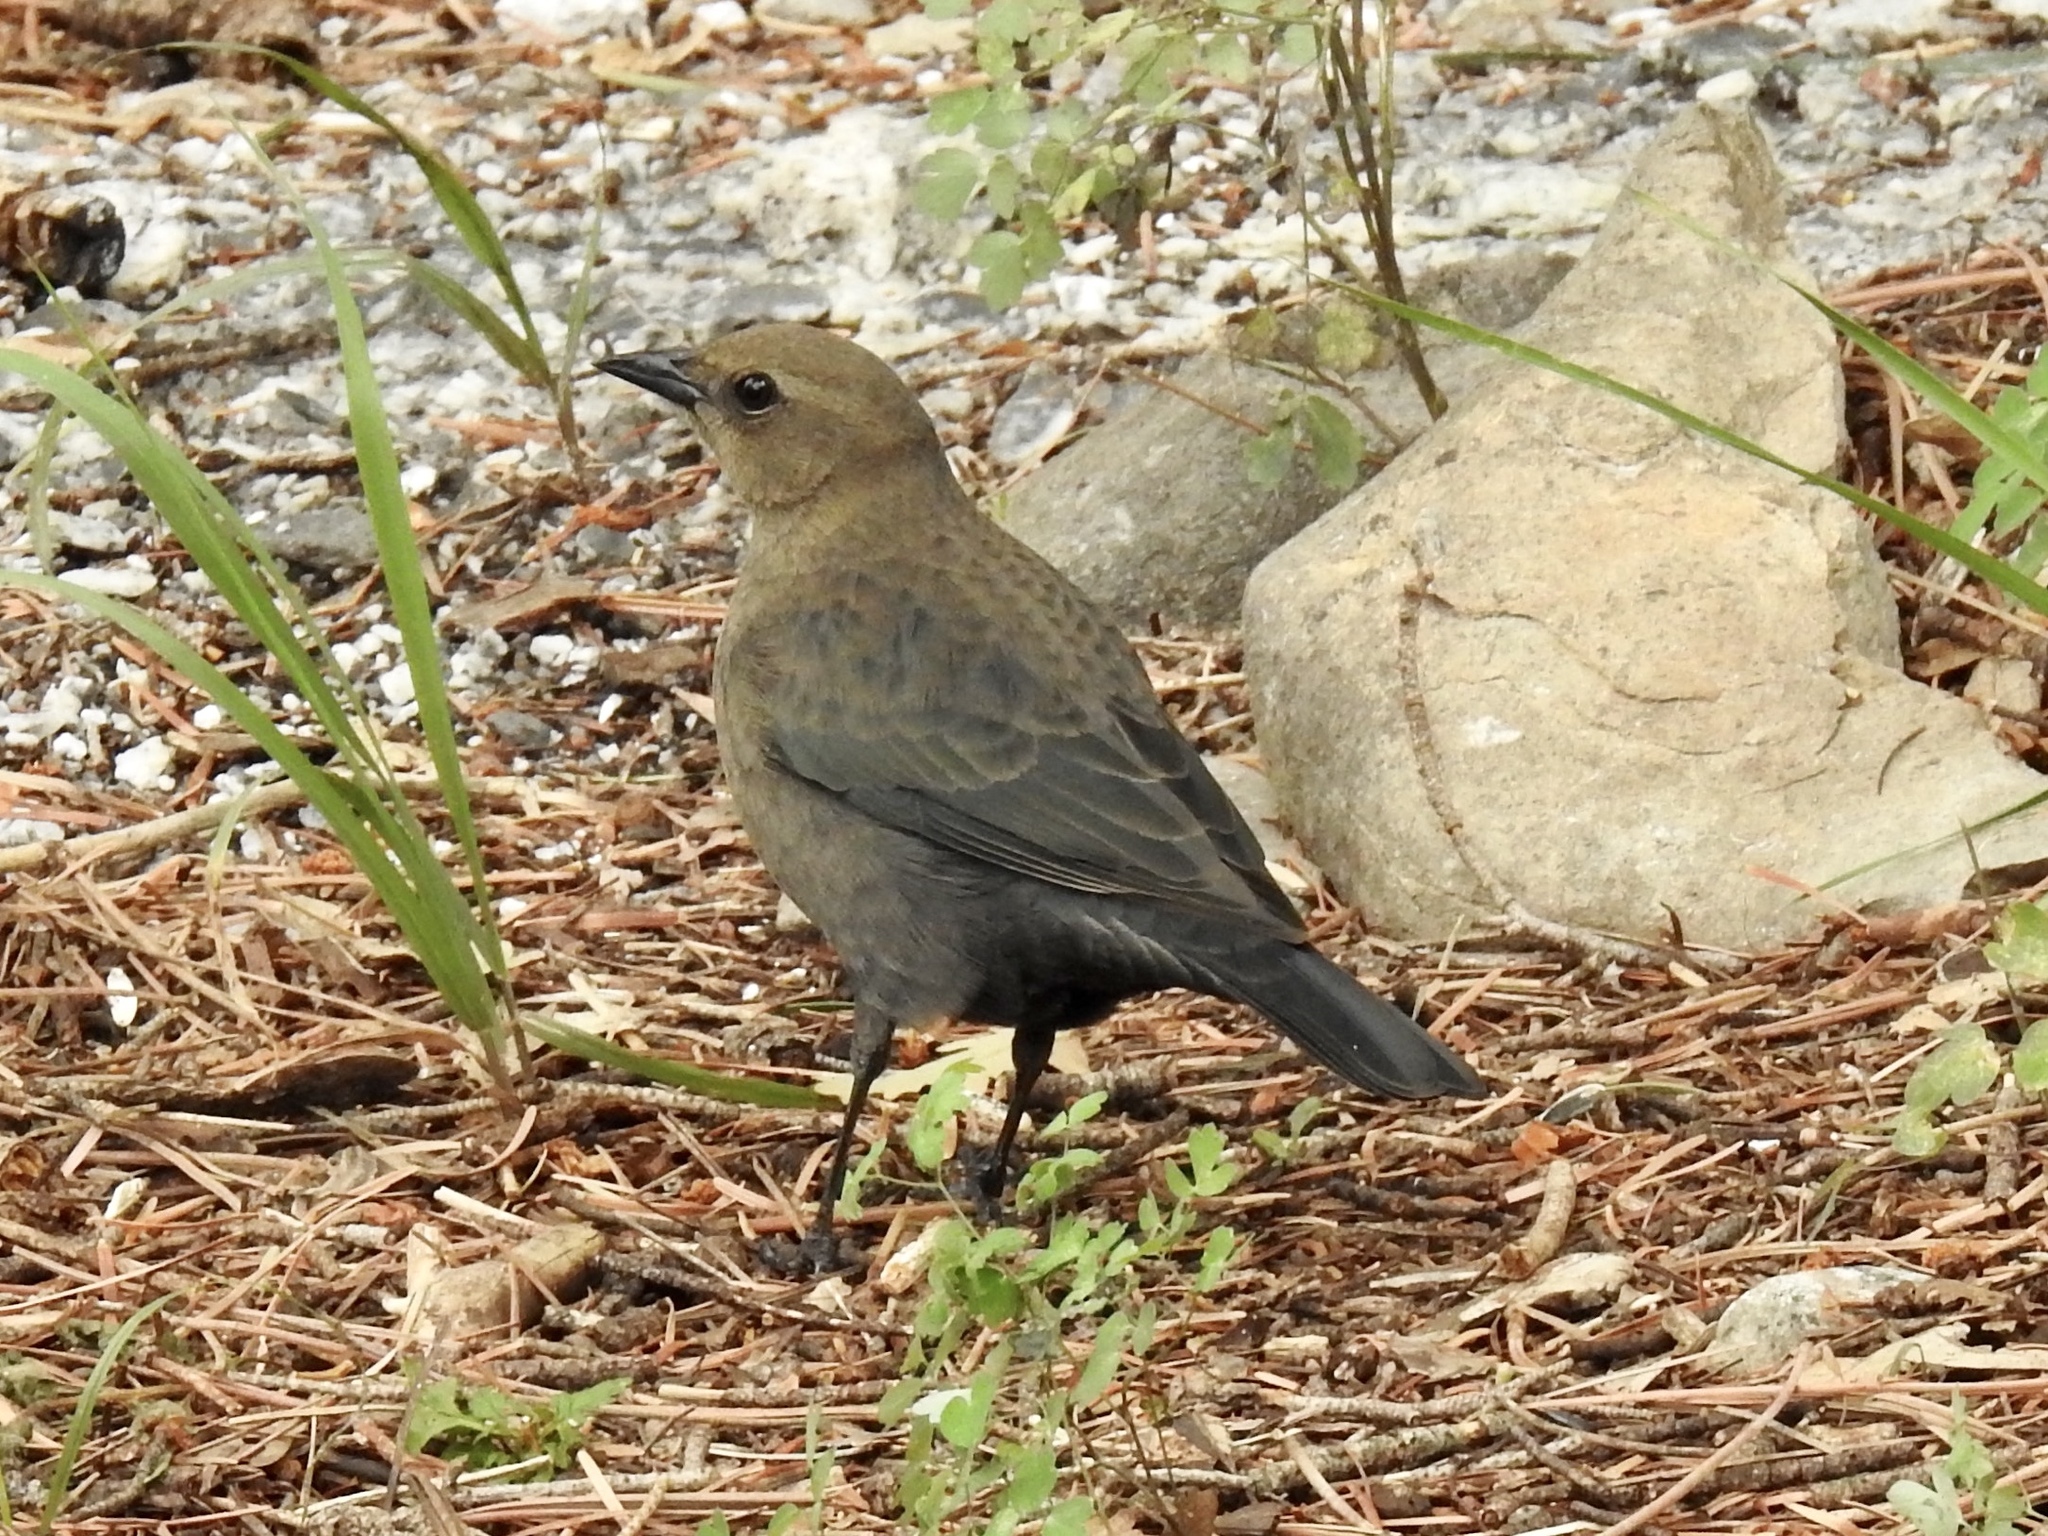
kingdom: Animalia
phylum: Chordata
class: Aves
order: Passeriformes
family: Icteridae
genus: Euphagus
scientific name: Euphagus cyanocephalus
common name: Brewer's blackbird
